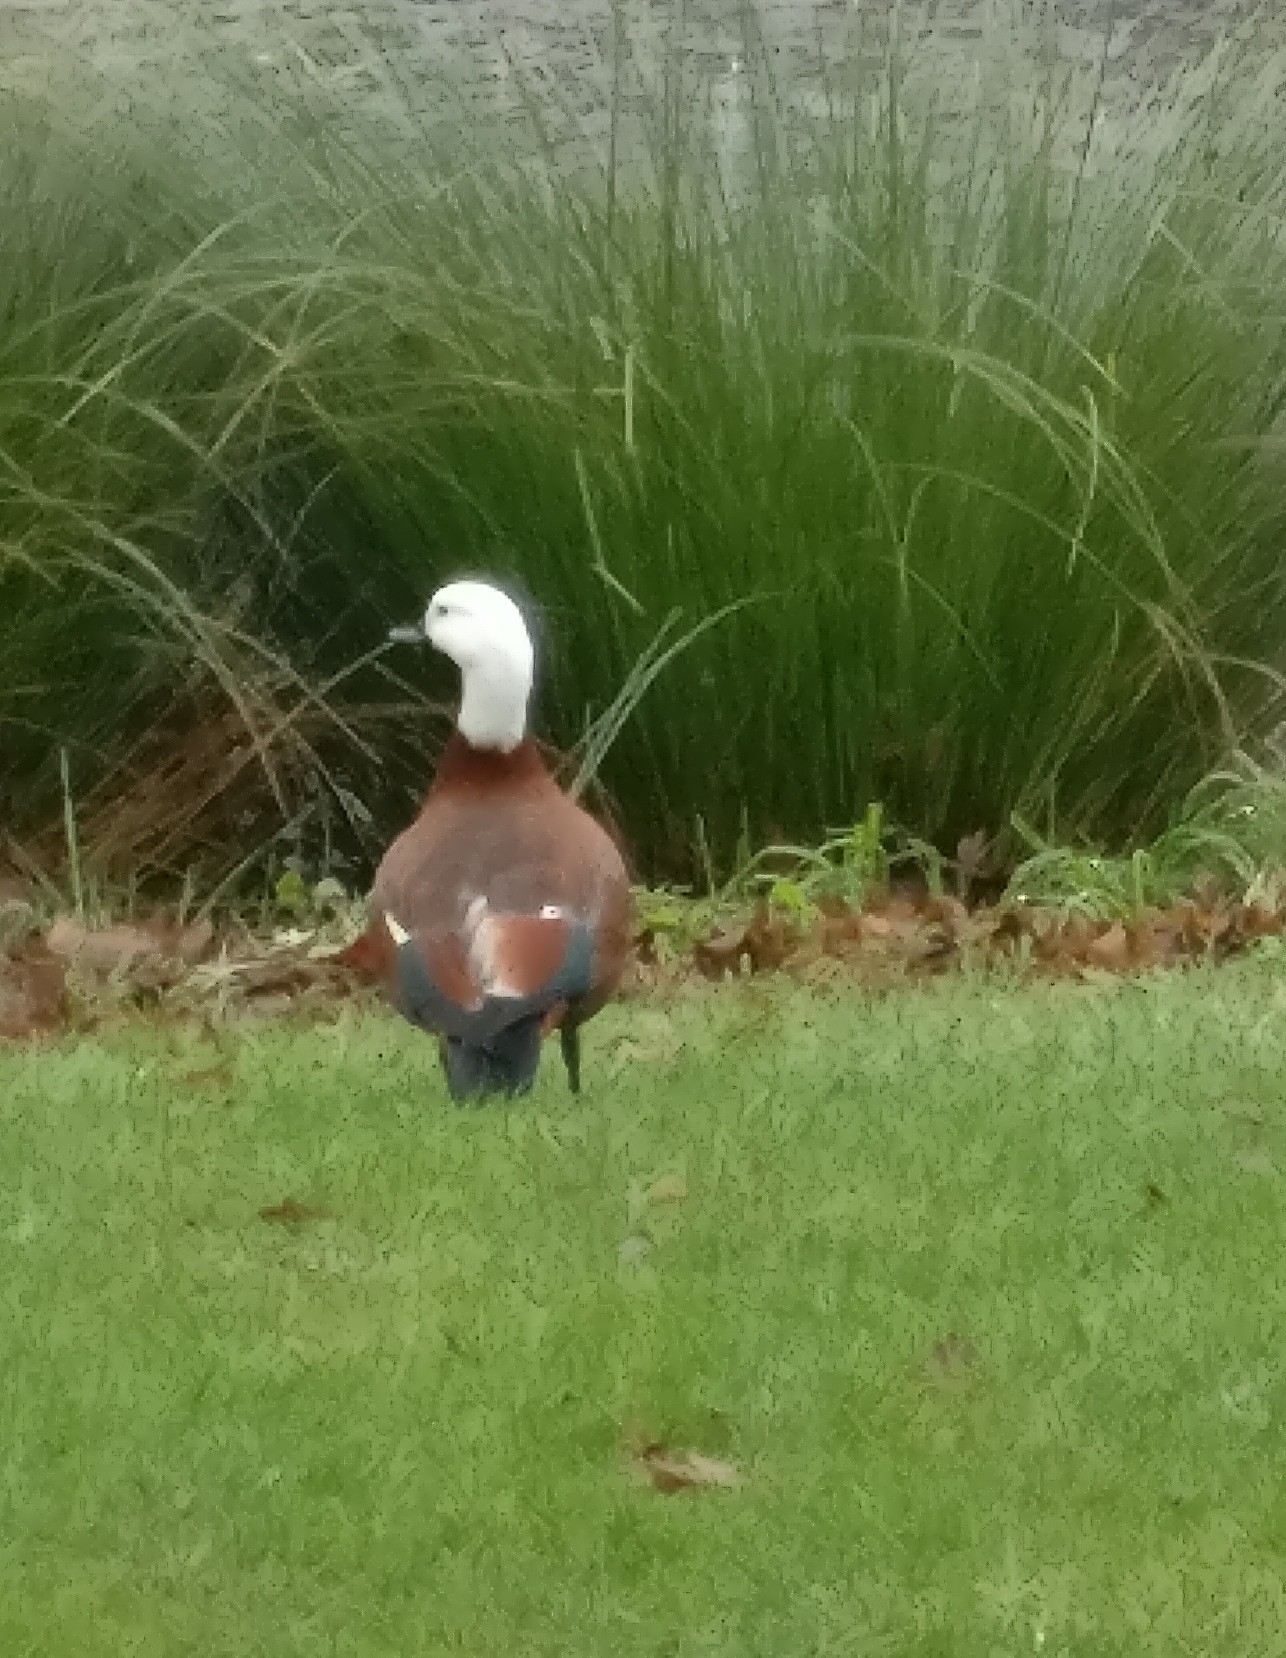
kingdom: Animalia
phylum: Chordata
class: Aves
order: Anseriformes
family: Anatidae
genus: Tadorna
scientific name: Tadorna variegata
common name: Paradise shelduck
